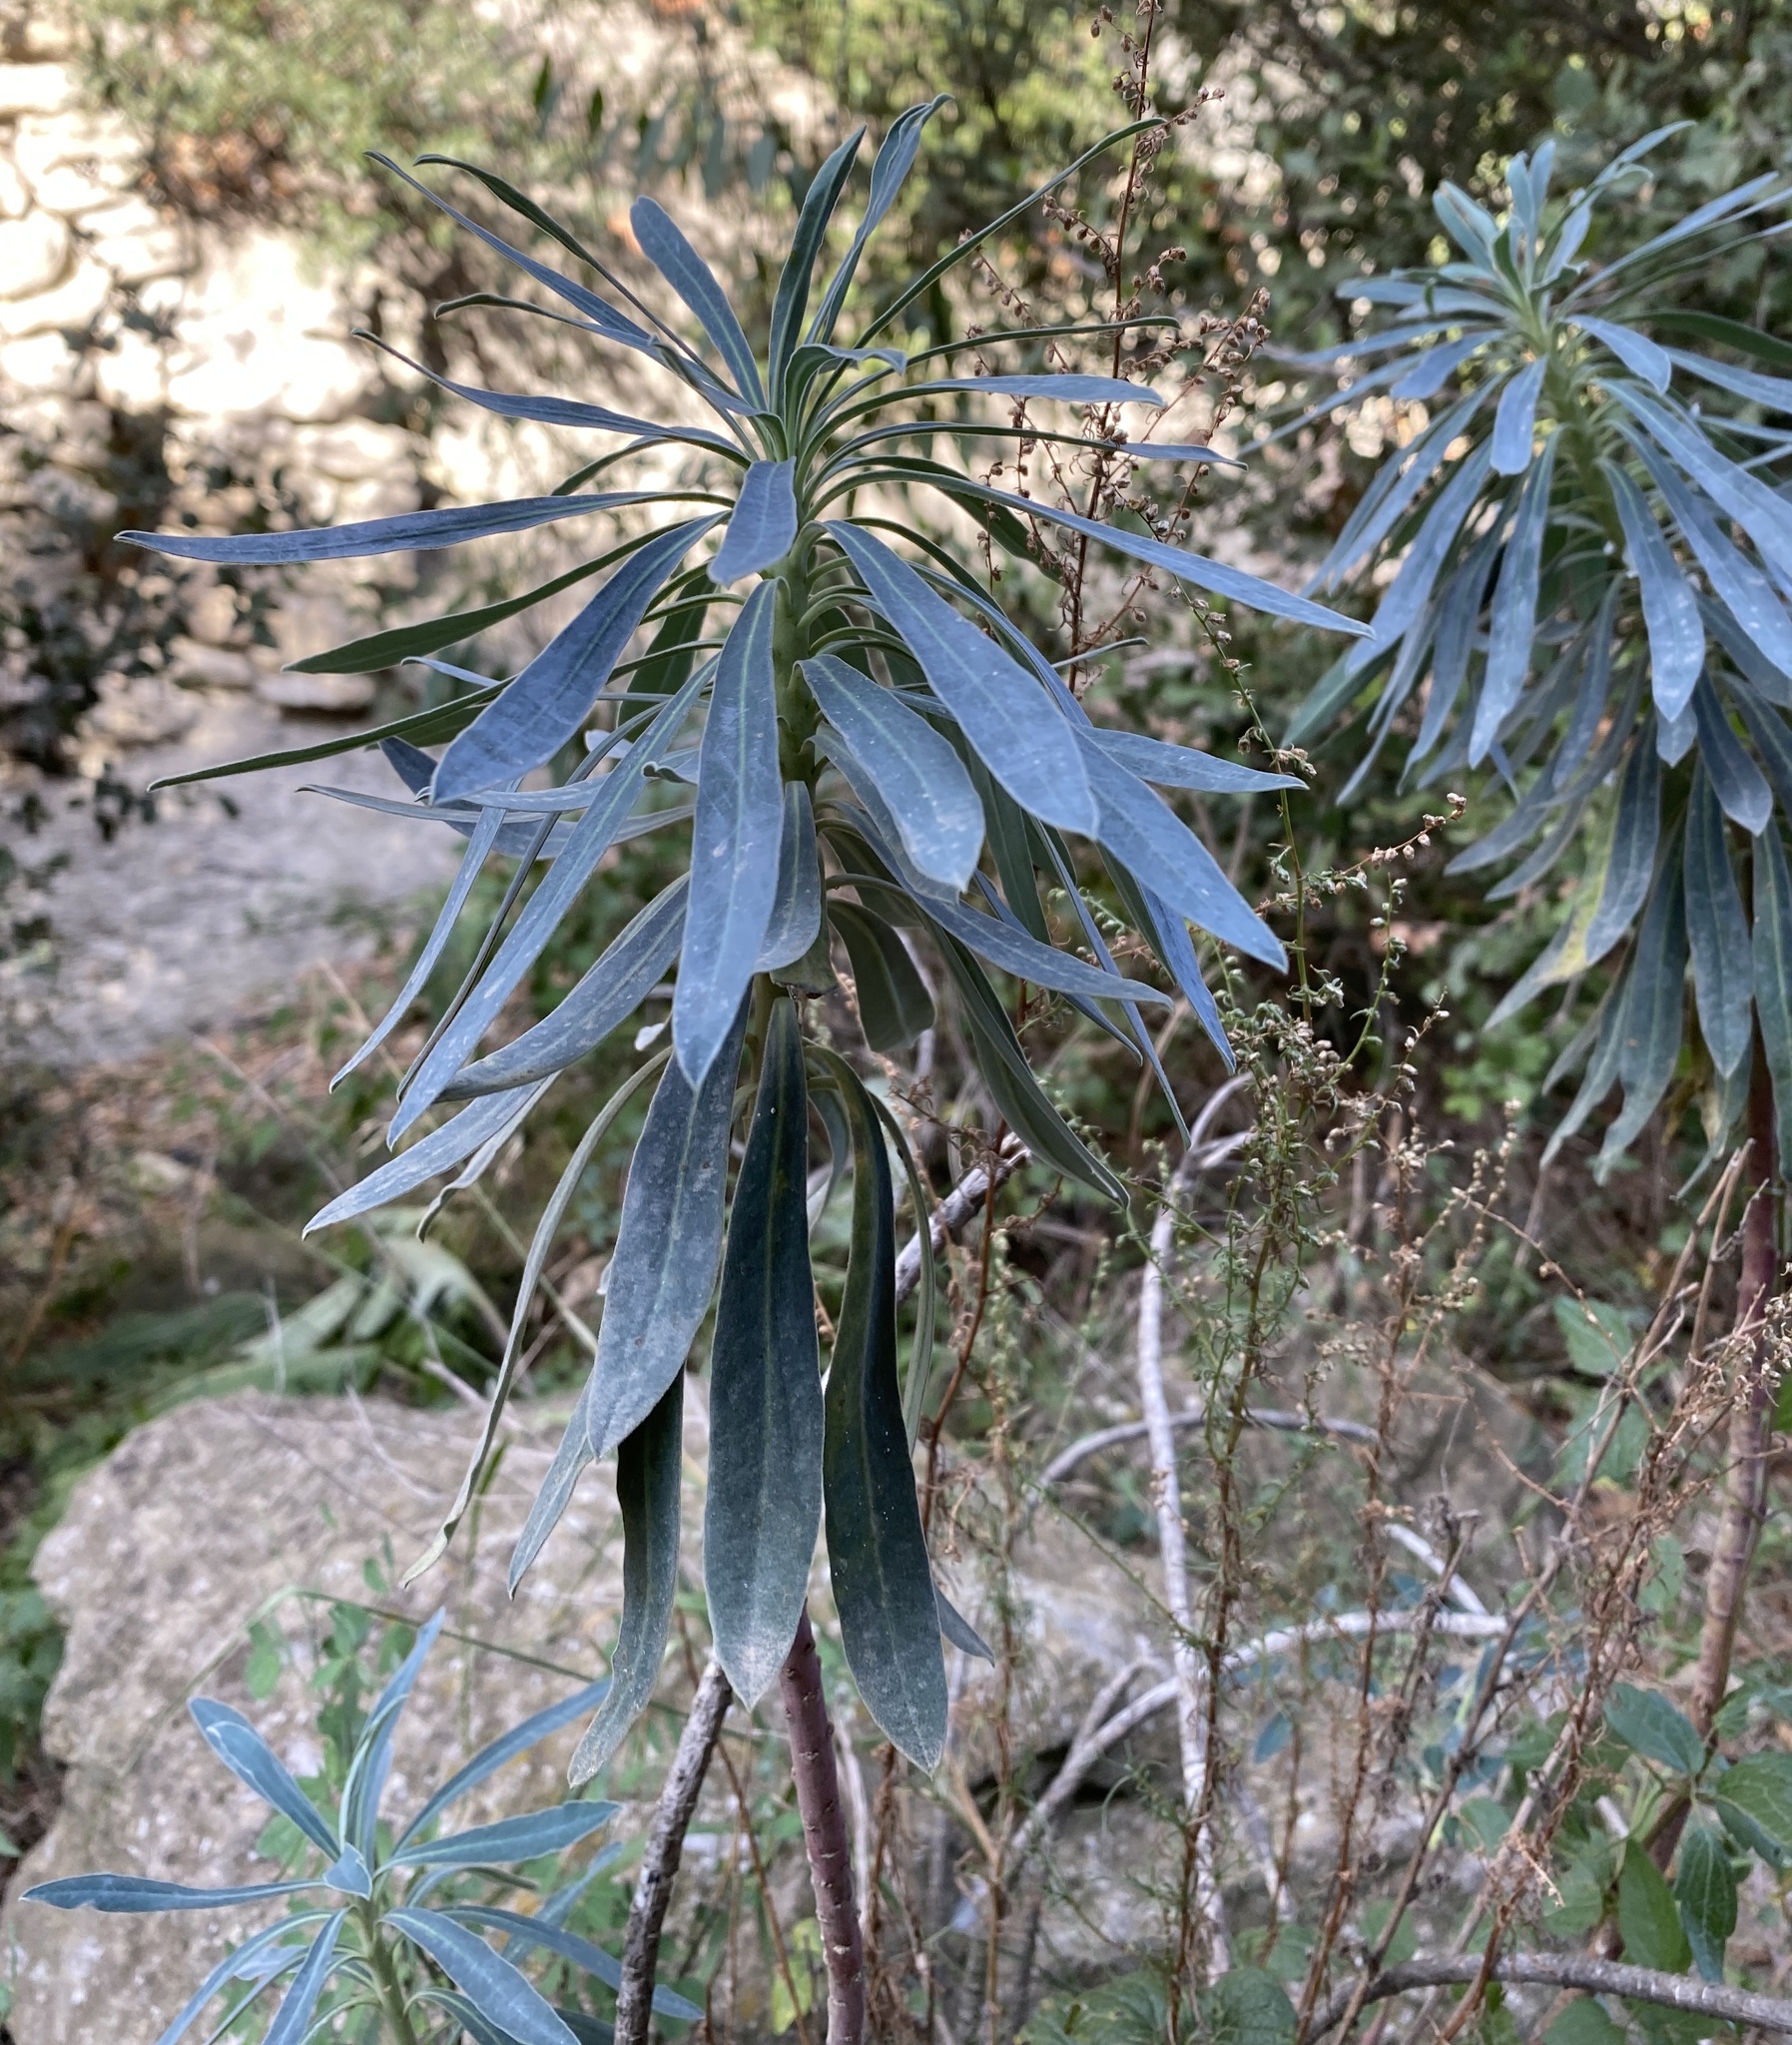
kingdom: Plantae
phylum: Tracheophyta
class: Magnoliopsida
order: Malpighiales
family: Euphorbiaceae
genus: Euphorbia
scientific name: Euphorbia characias
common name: Mediterranean spurge
